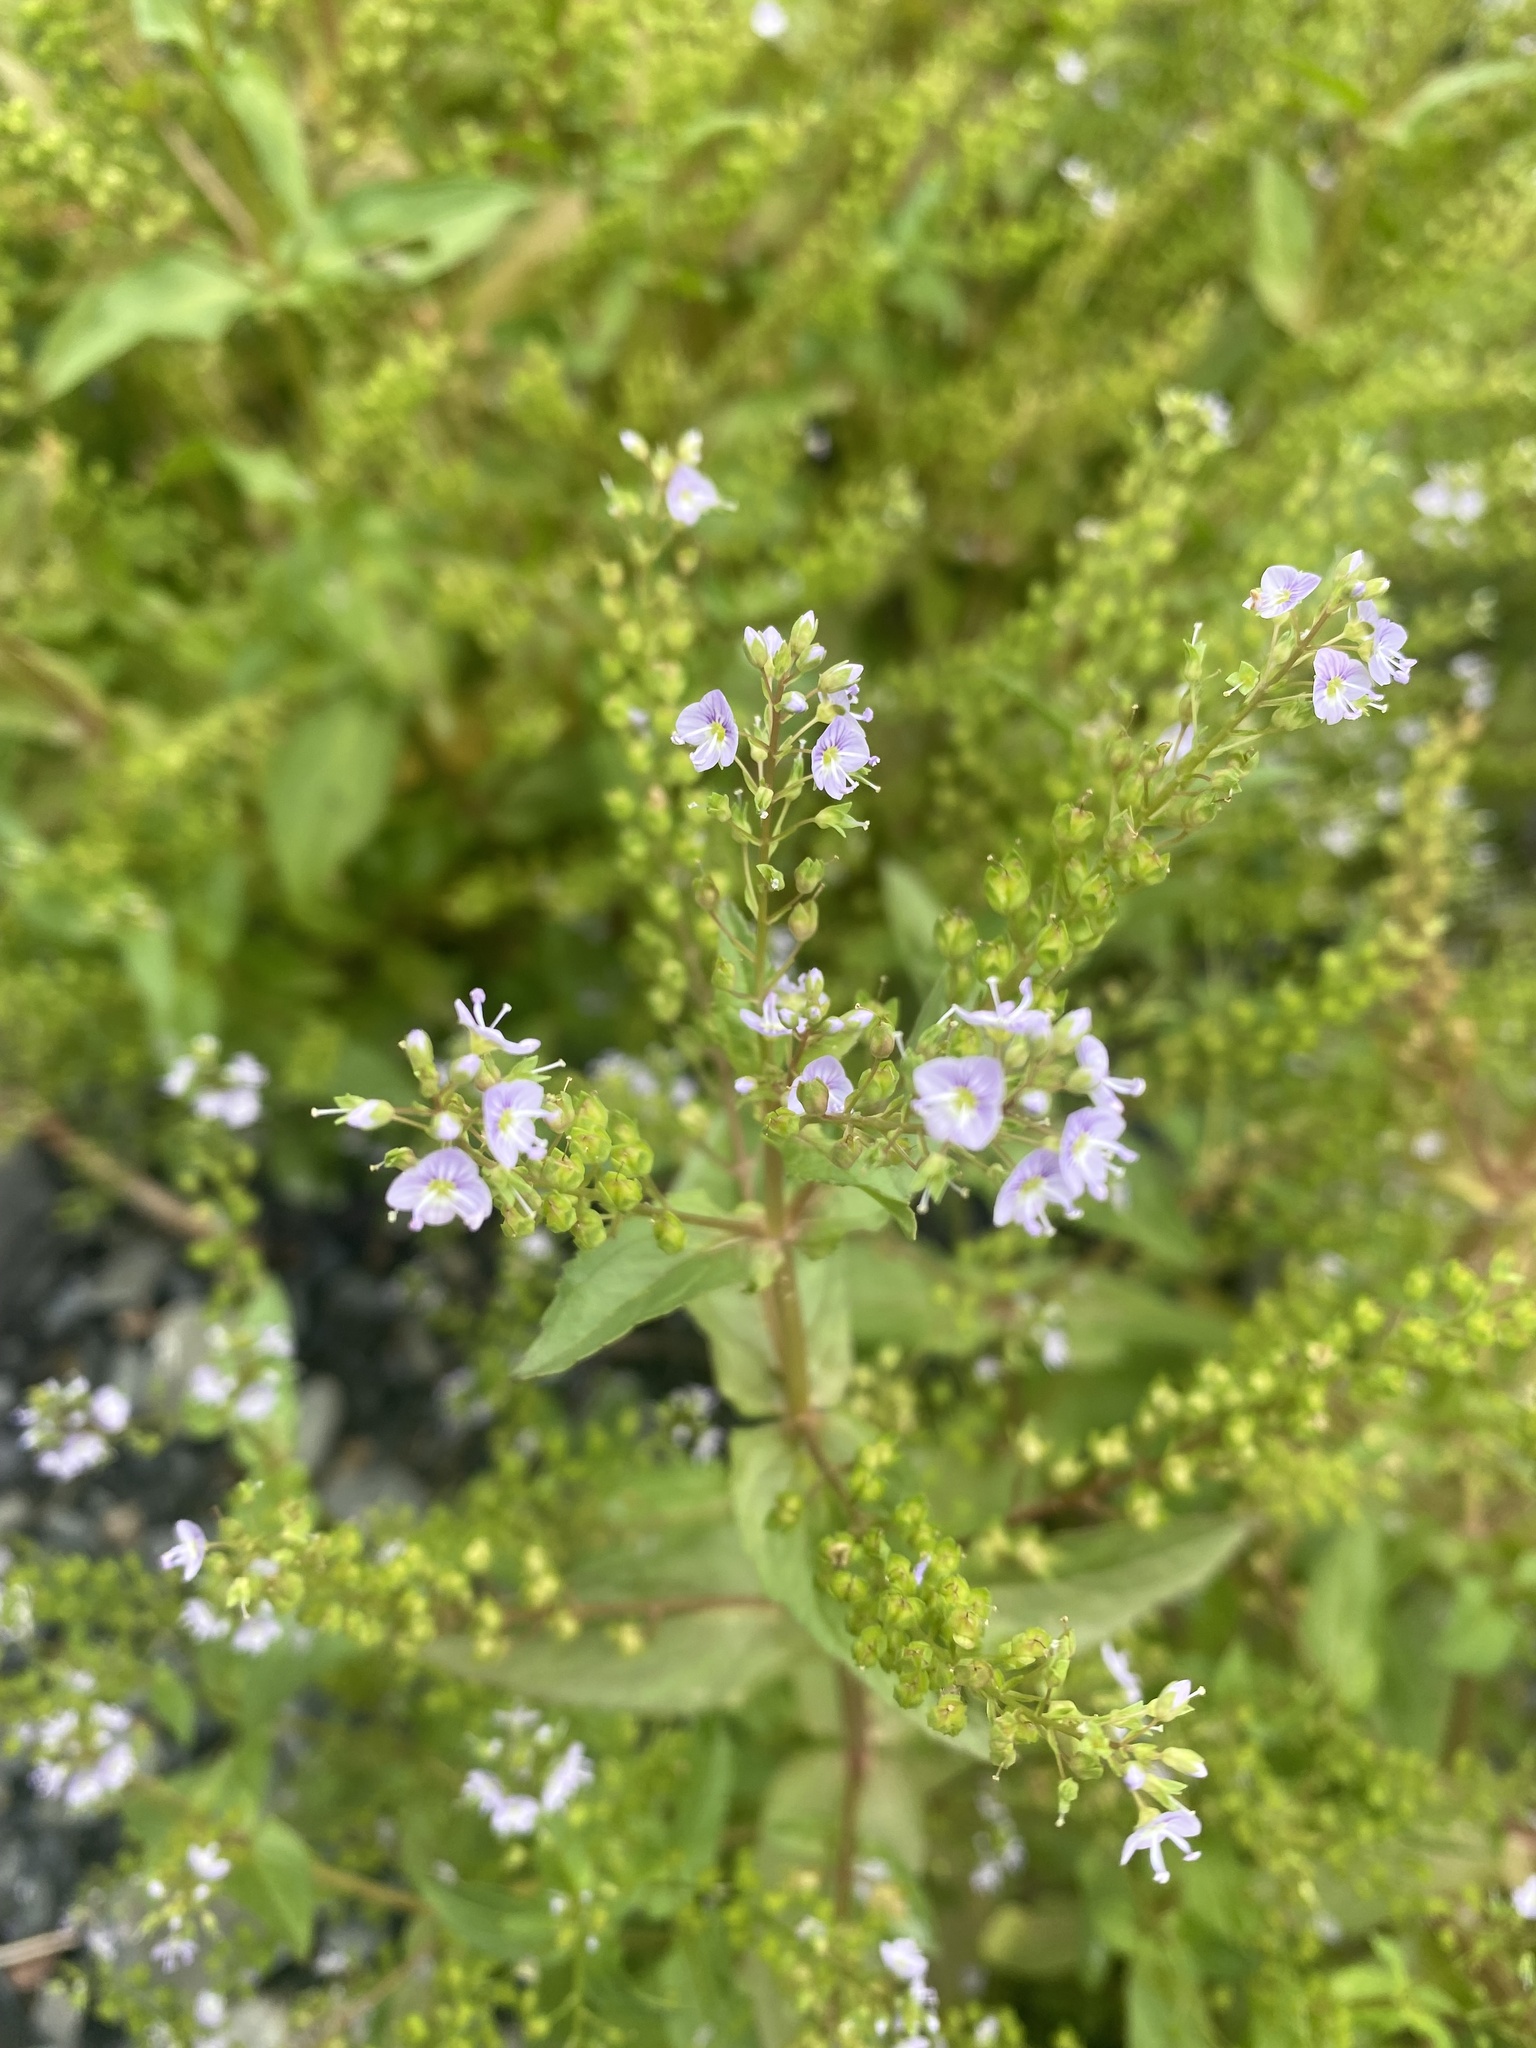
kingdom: Plantae
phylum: Tracheophyta
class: Magnoliopsida
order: Lamiales
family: Plantaginaceae
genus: Veronica
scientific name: Veronica anagallis-aquatica
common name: Water speedwell
